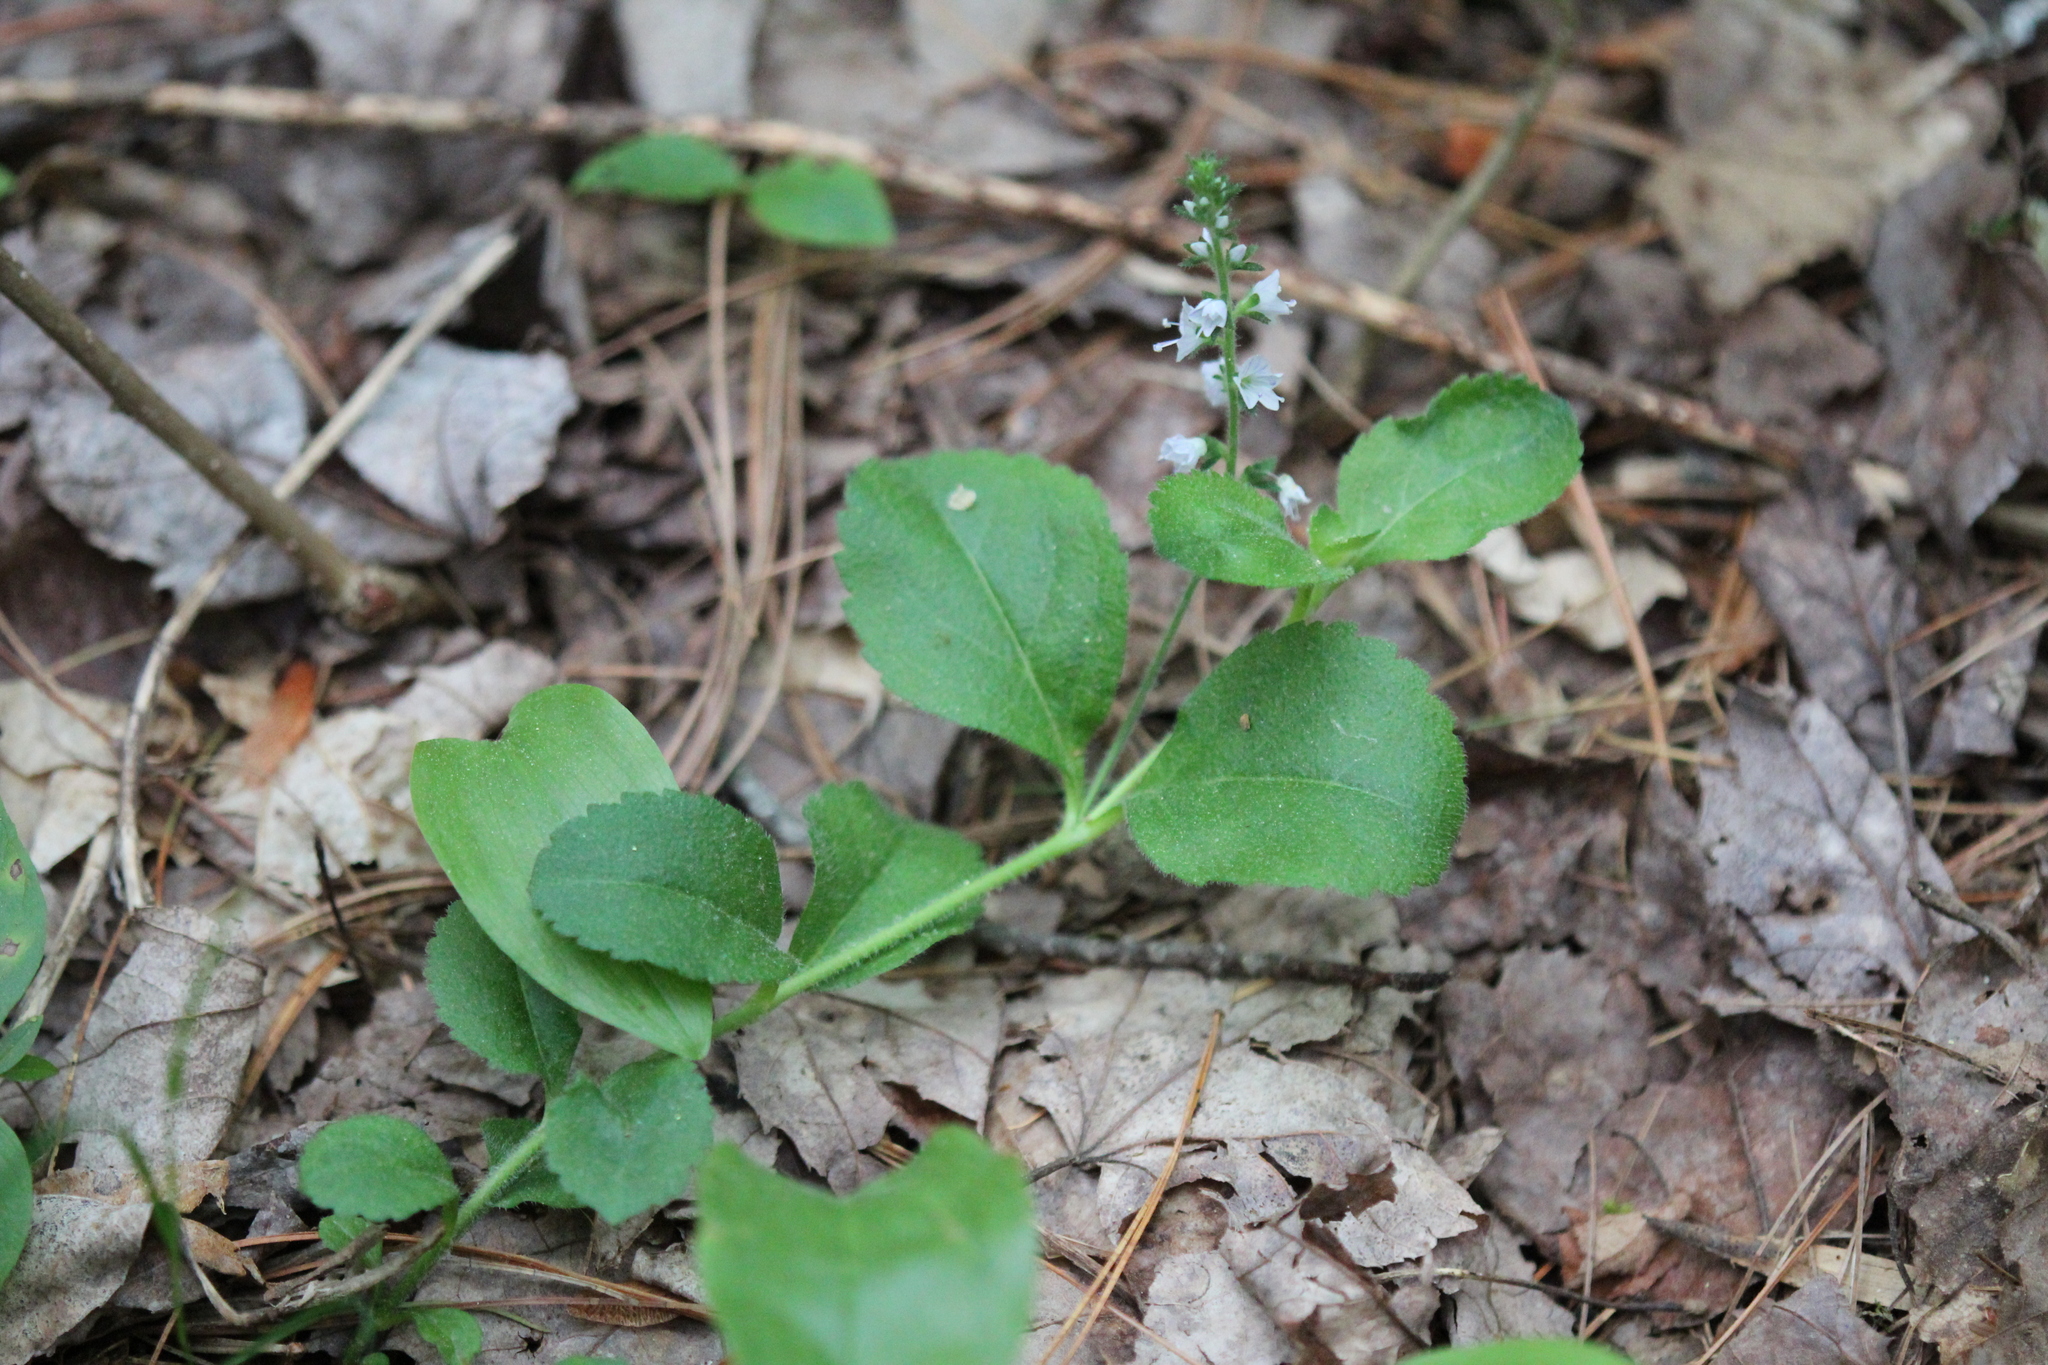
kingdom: Plantae
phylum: Tracheophyta
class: Magnoliopsida
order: Lamiales
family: Plantaginaceae
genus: Veronica
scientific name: Veronica officinalis
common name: Common speedwell
